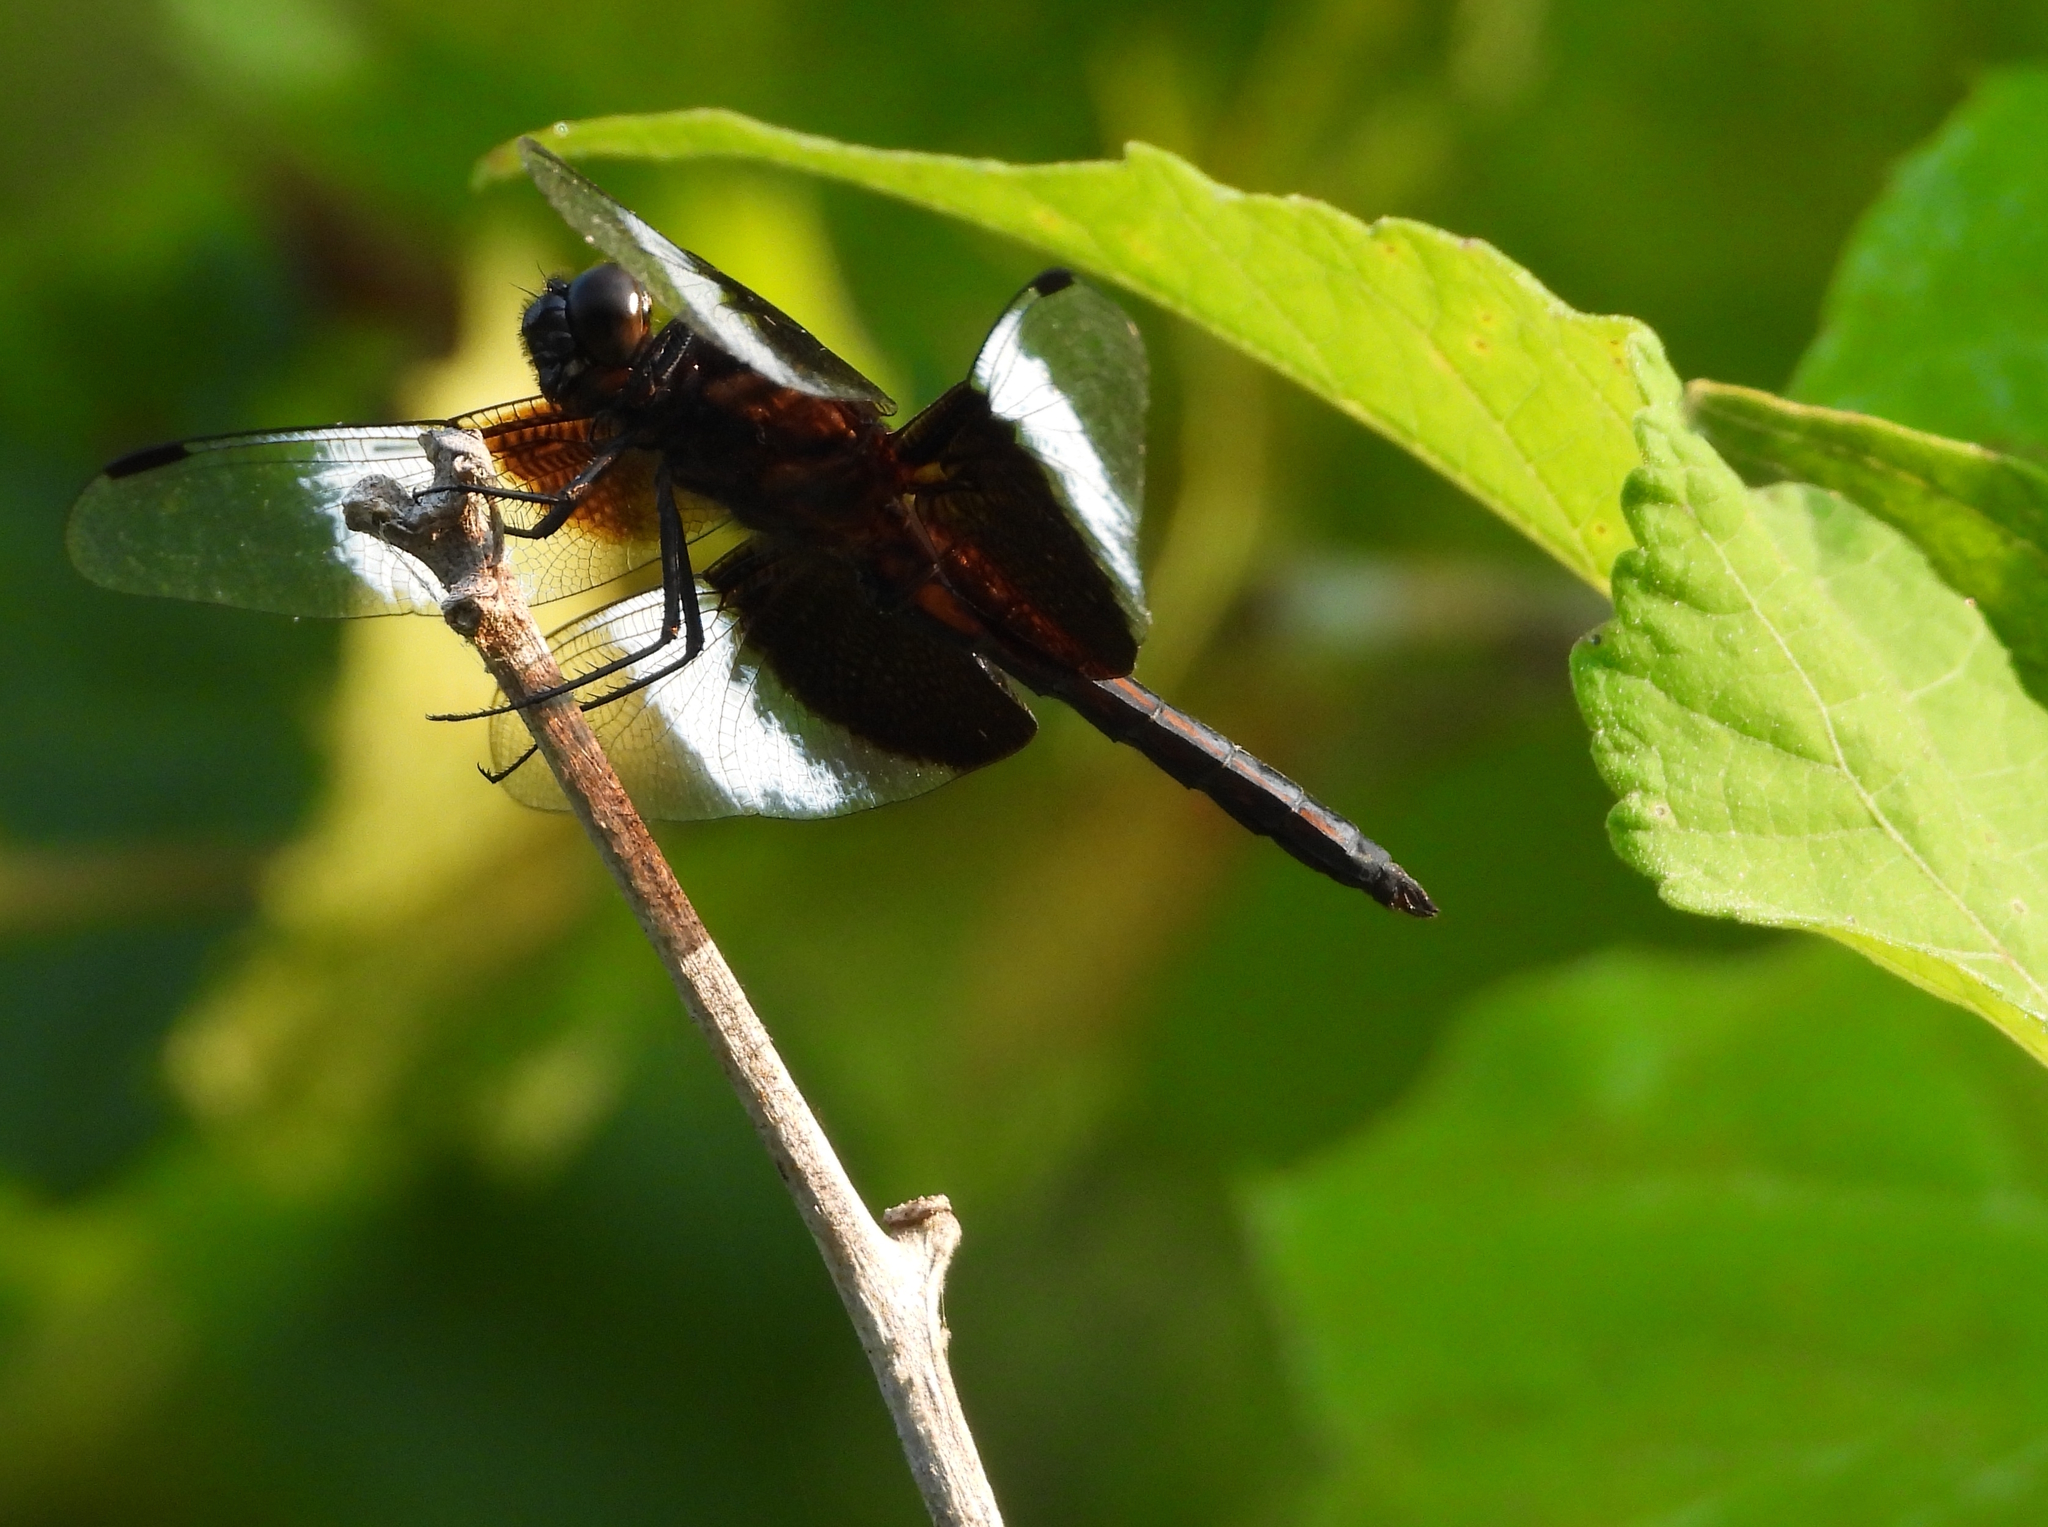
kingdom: Animalia
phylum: Arthropoda
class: Insecta
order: Odonata
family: Libellulidae
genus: Libellula
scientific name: Libellula luctuosa
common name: Widow skimmer
